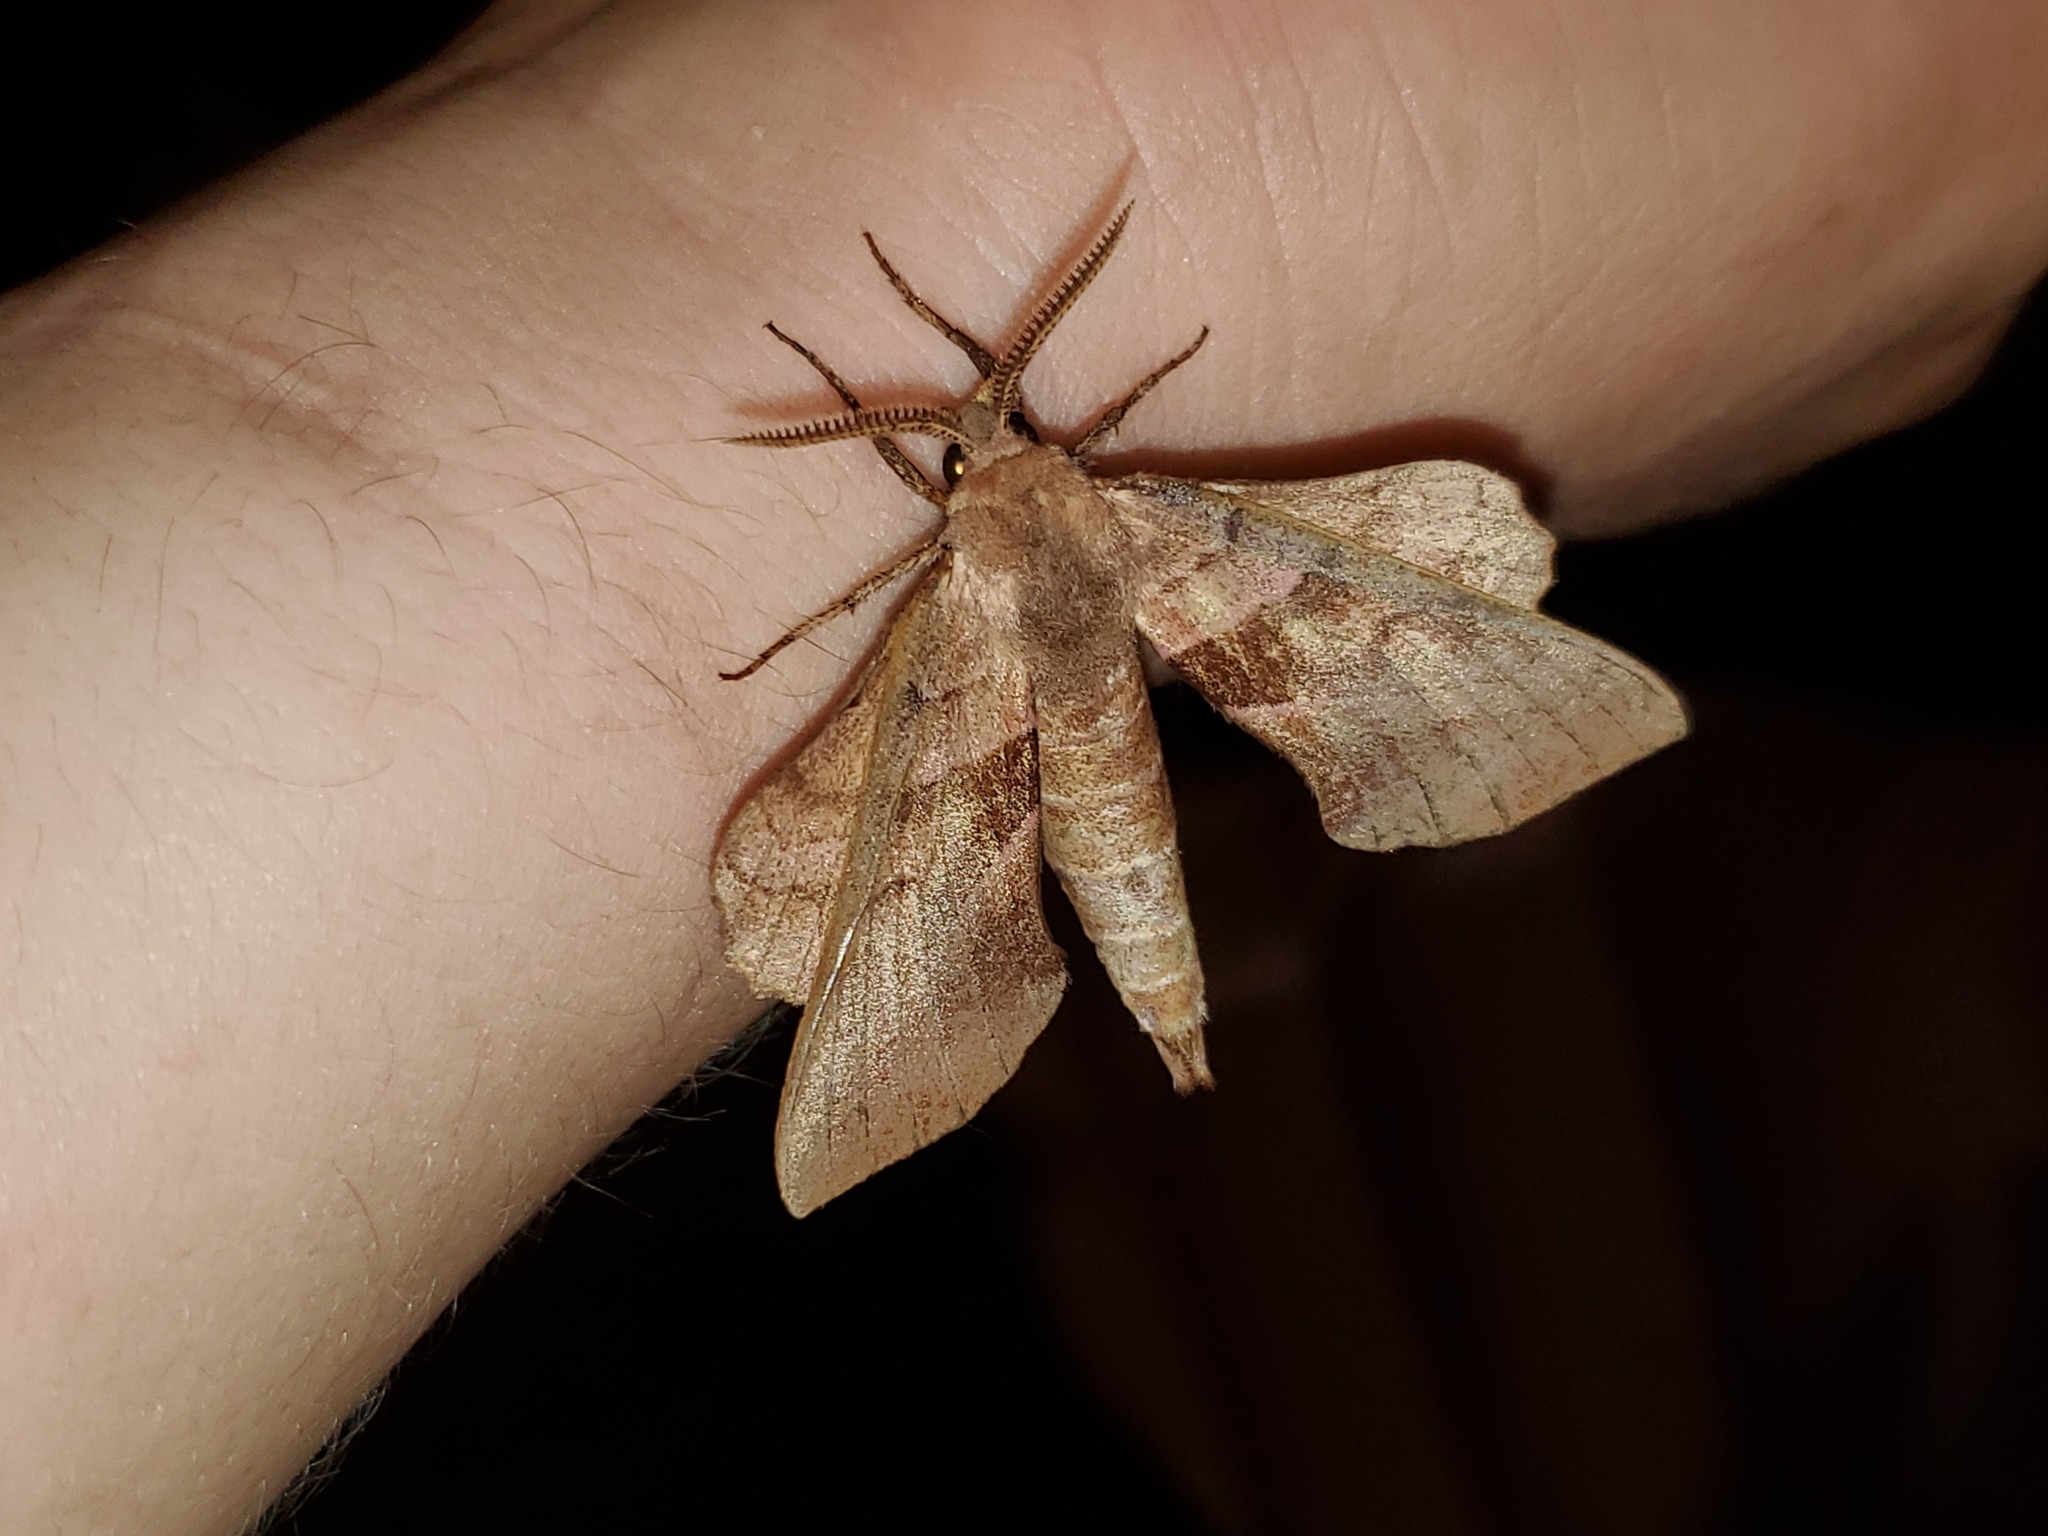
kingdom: Animalia
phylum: Arthropoda
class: Insecta
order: Lepidoptera
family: Sphingidae
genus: Amorpha
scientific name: Amorpha juglandis
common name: Walnut sphinx
